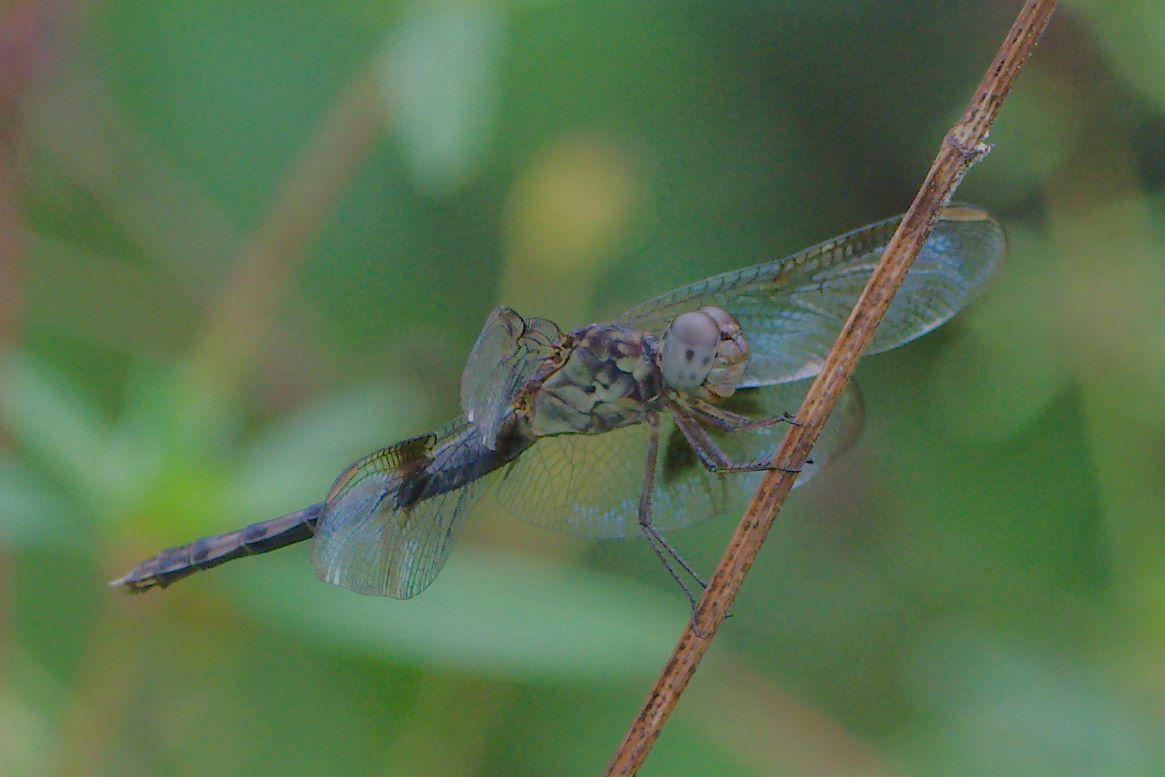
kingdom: Animalia
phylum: Arthropoda
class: Insecta
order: Odonata
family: Libellulidae
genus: Erythrodiplax
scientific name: Erythrodiplax umbrata
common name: Band-winged dragonlet
